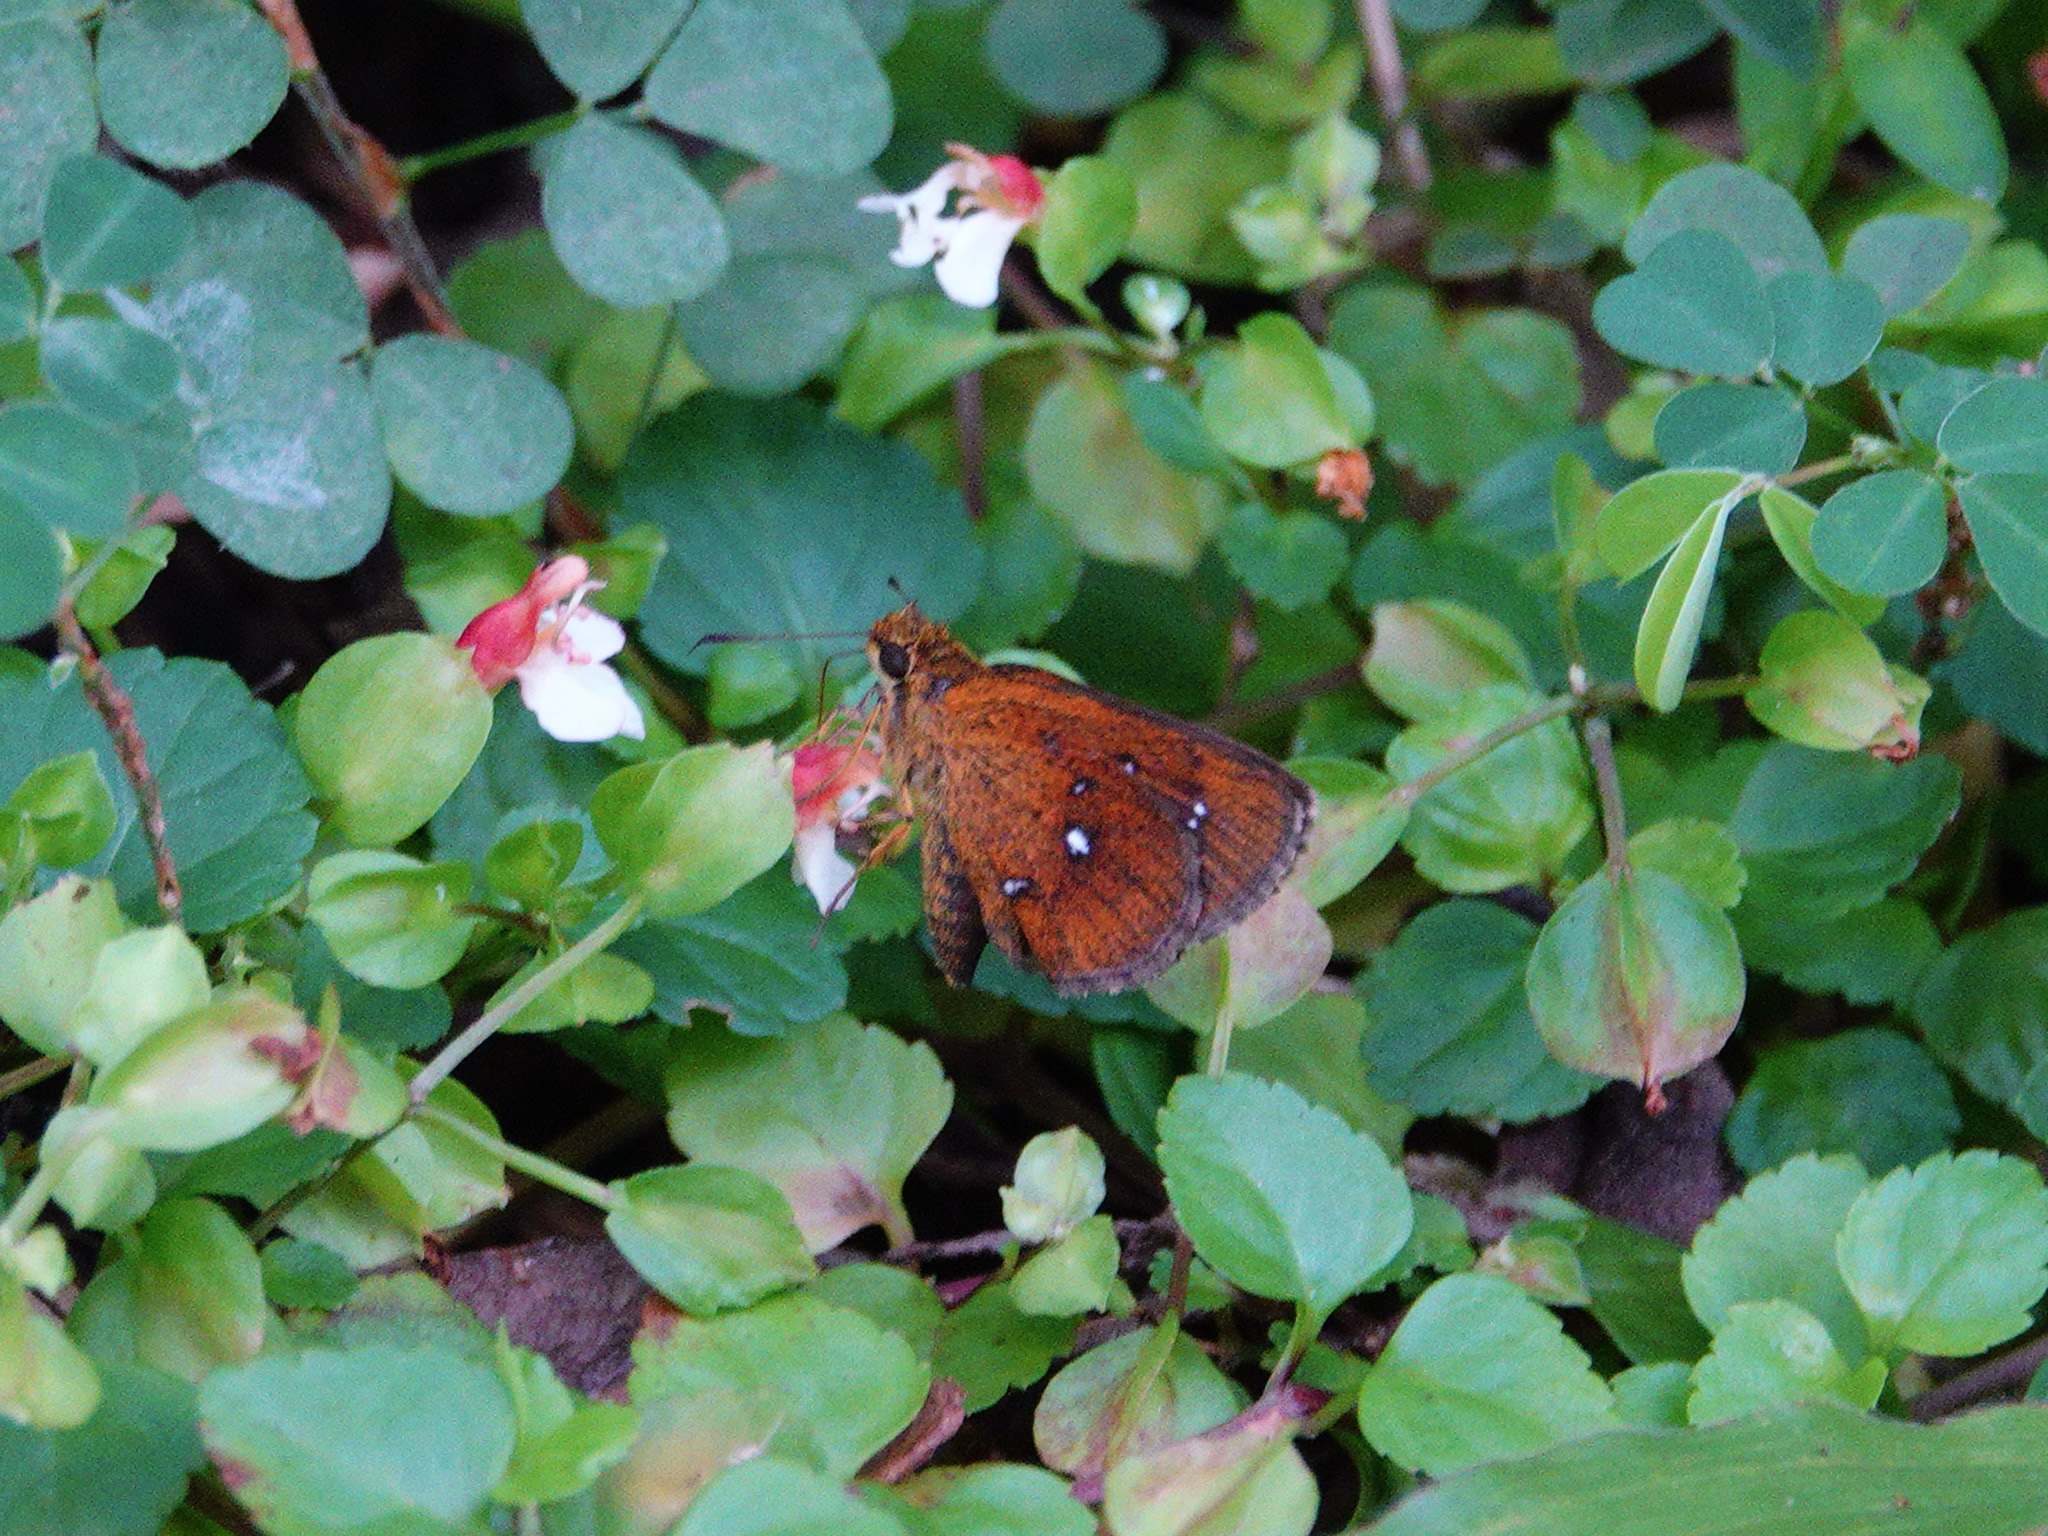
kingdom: Animalia
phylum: Arthropoda
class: Insecta
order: Lepidoptera
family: Hesperiidae
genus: Iambrix
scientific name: Iambrix salsala
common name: Chestnut bob
